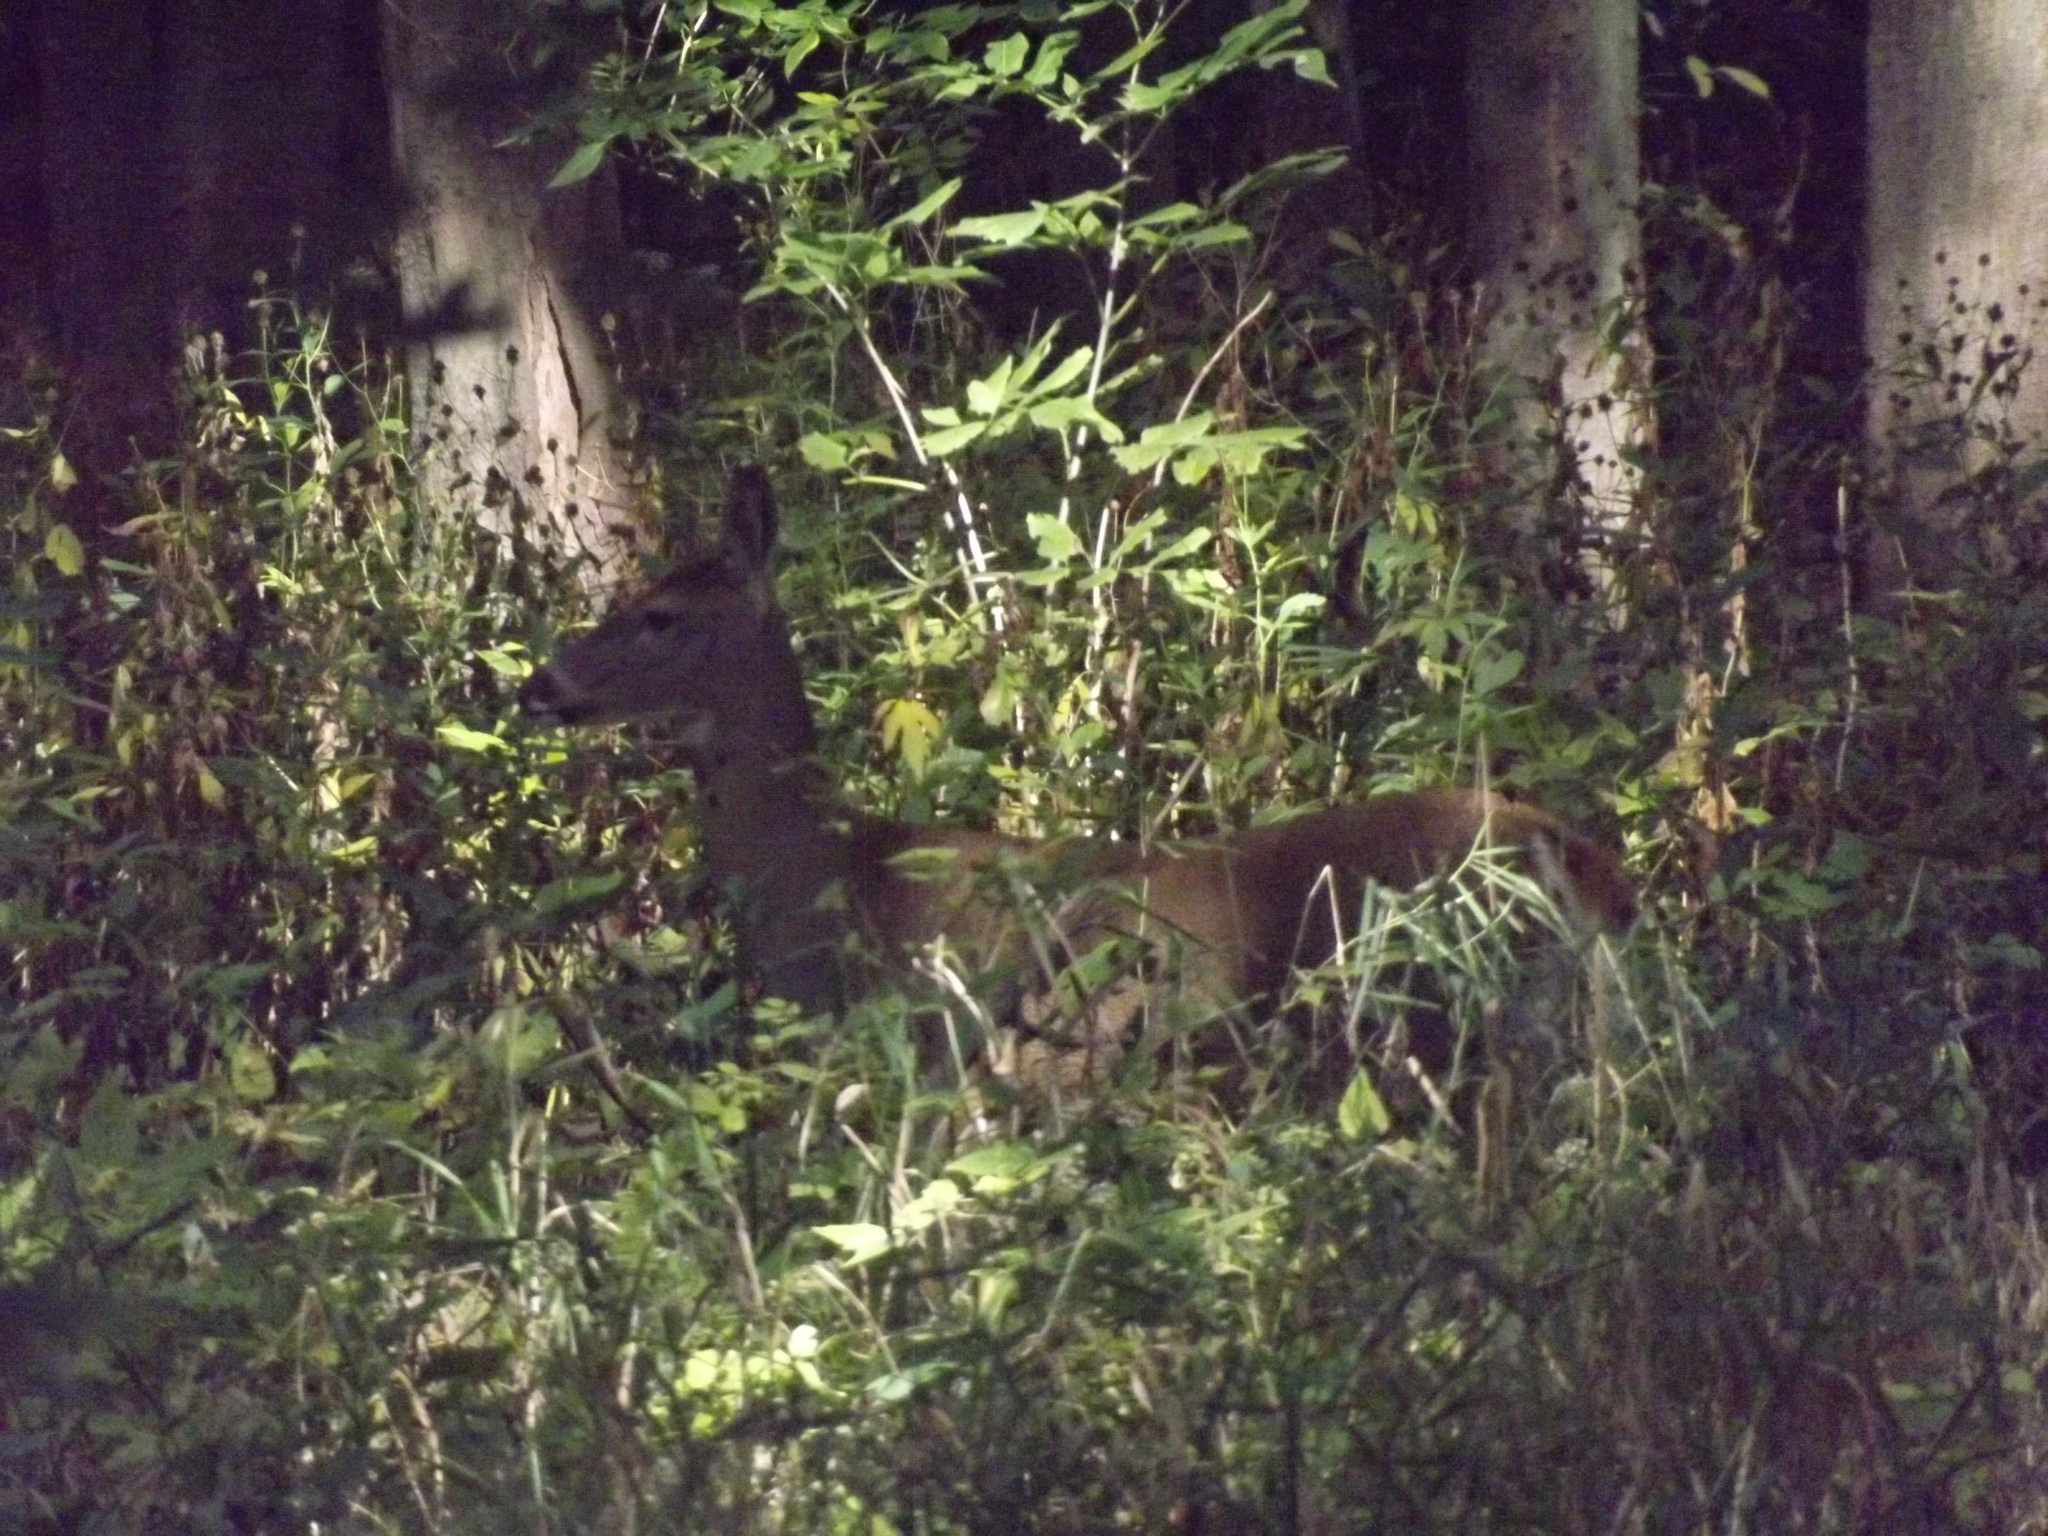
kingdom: Animalia
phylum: Chordata
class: Mammalia
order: Artiodactyla
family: Cervidae
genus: Odocoileus
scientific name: Odocoileus virginianus
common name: White-tailed deer
